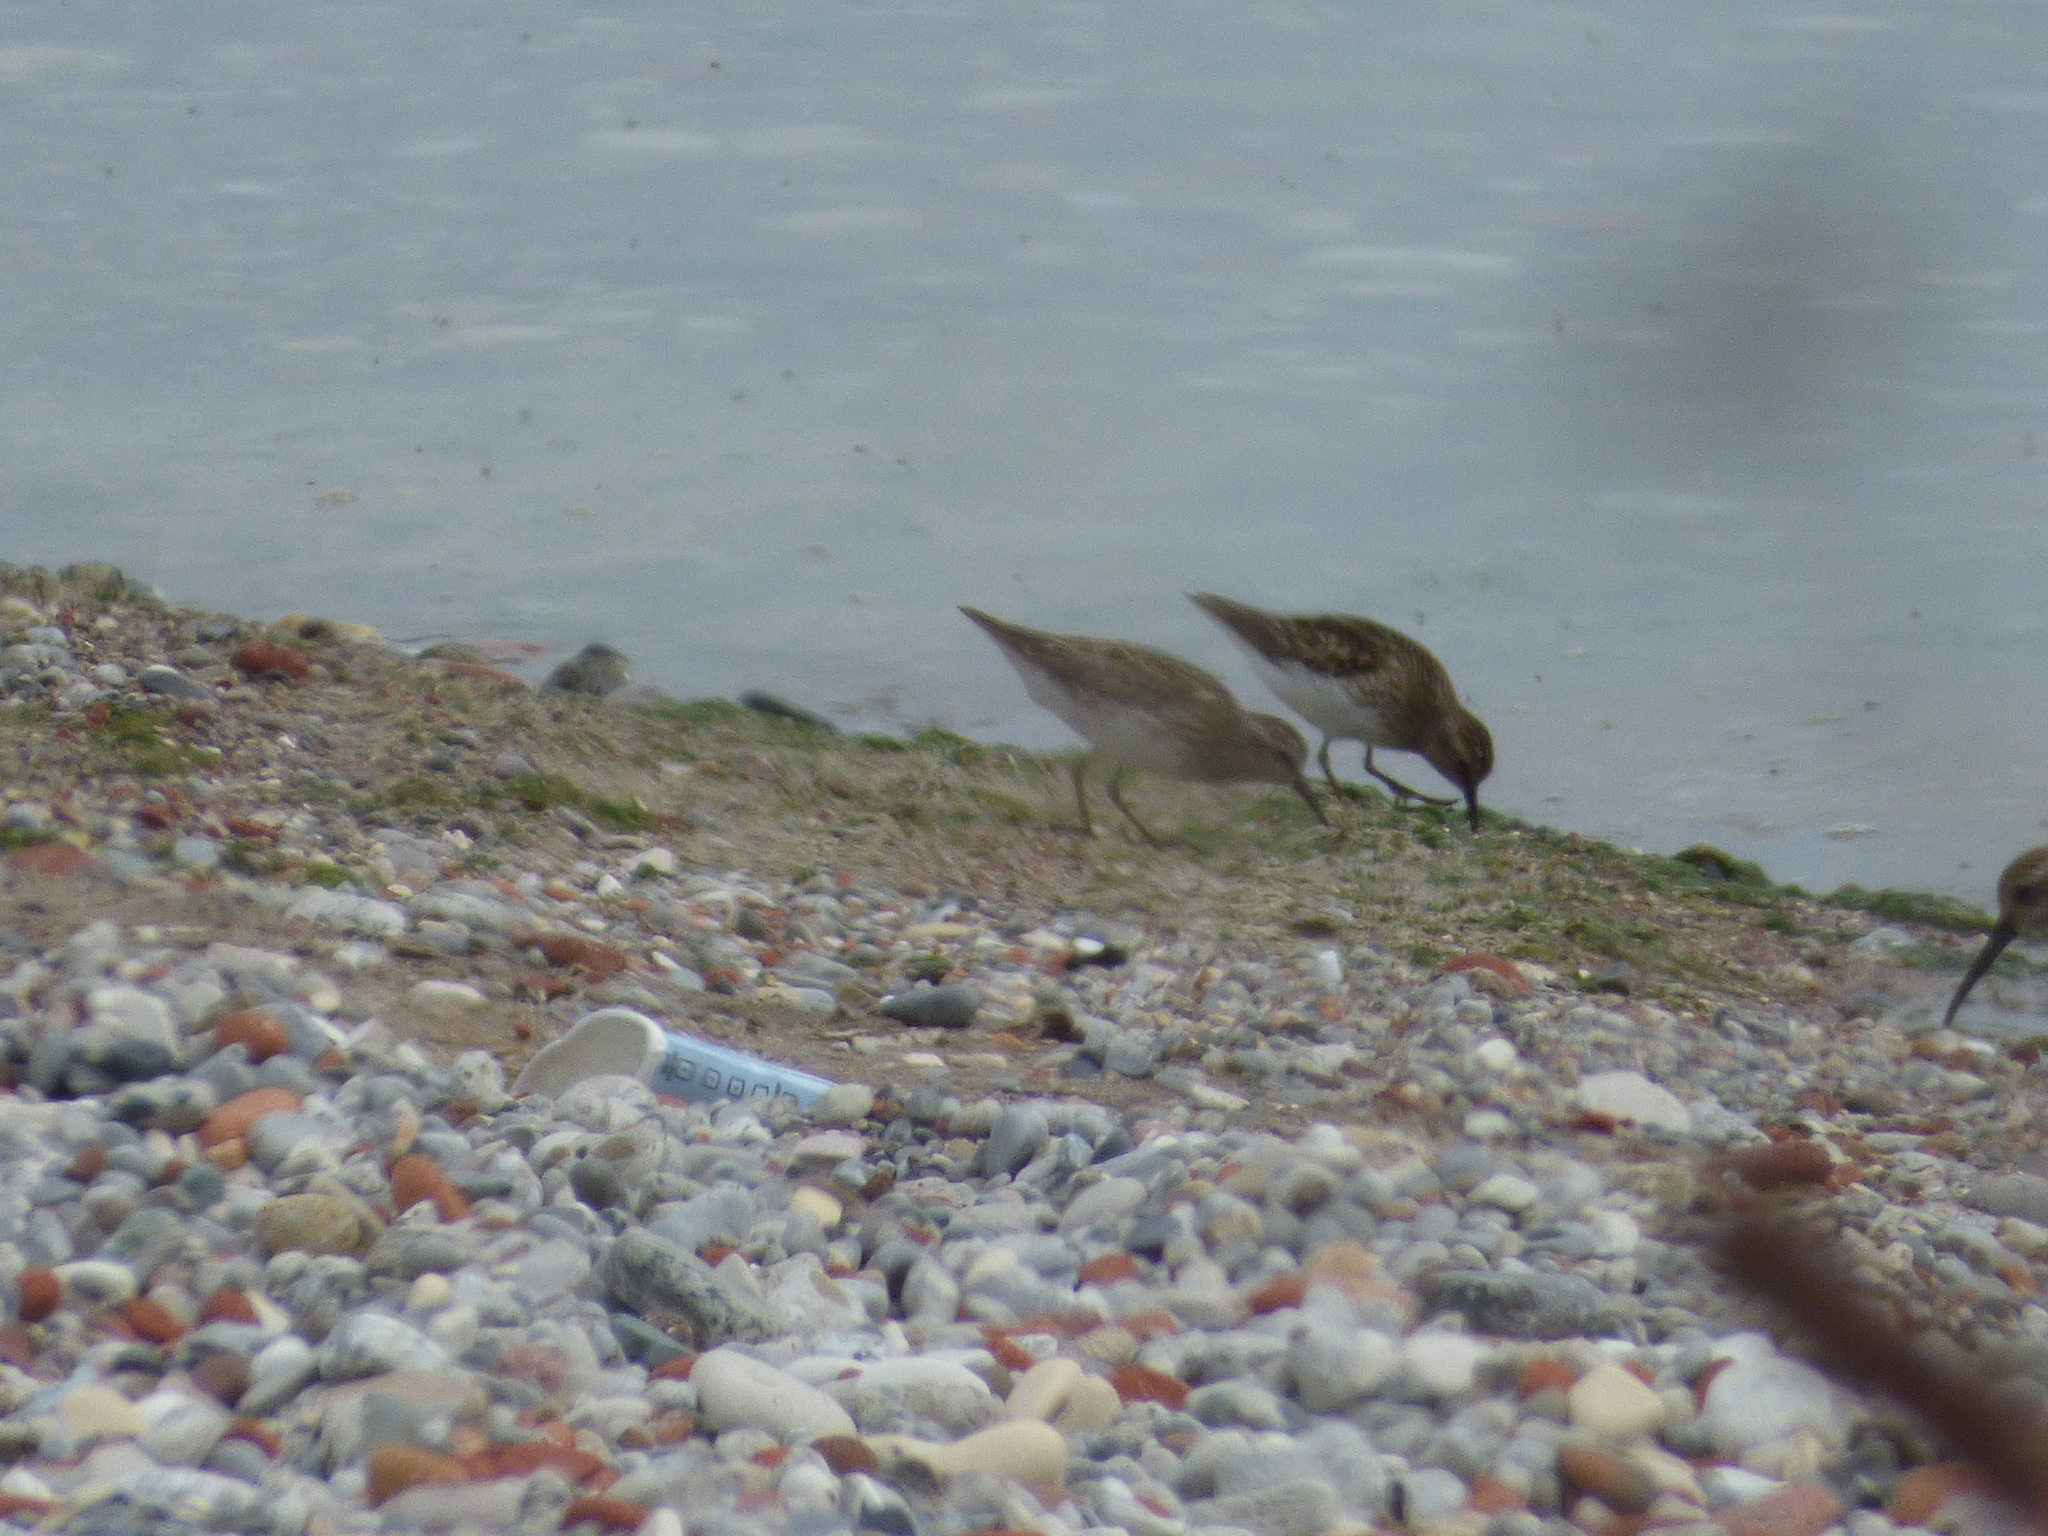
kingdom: Animalia
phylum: Chordata
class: Aves
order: Charadriiformes
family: Scolopacidae
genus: Calidris
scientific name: Calidris minutilla
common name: Least sandpiper
